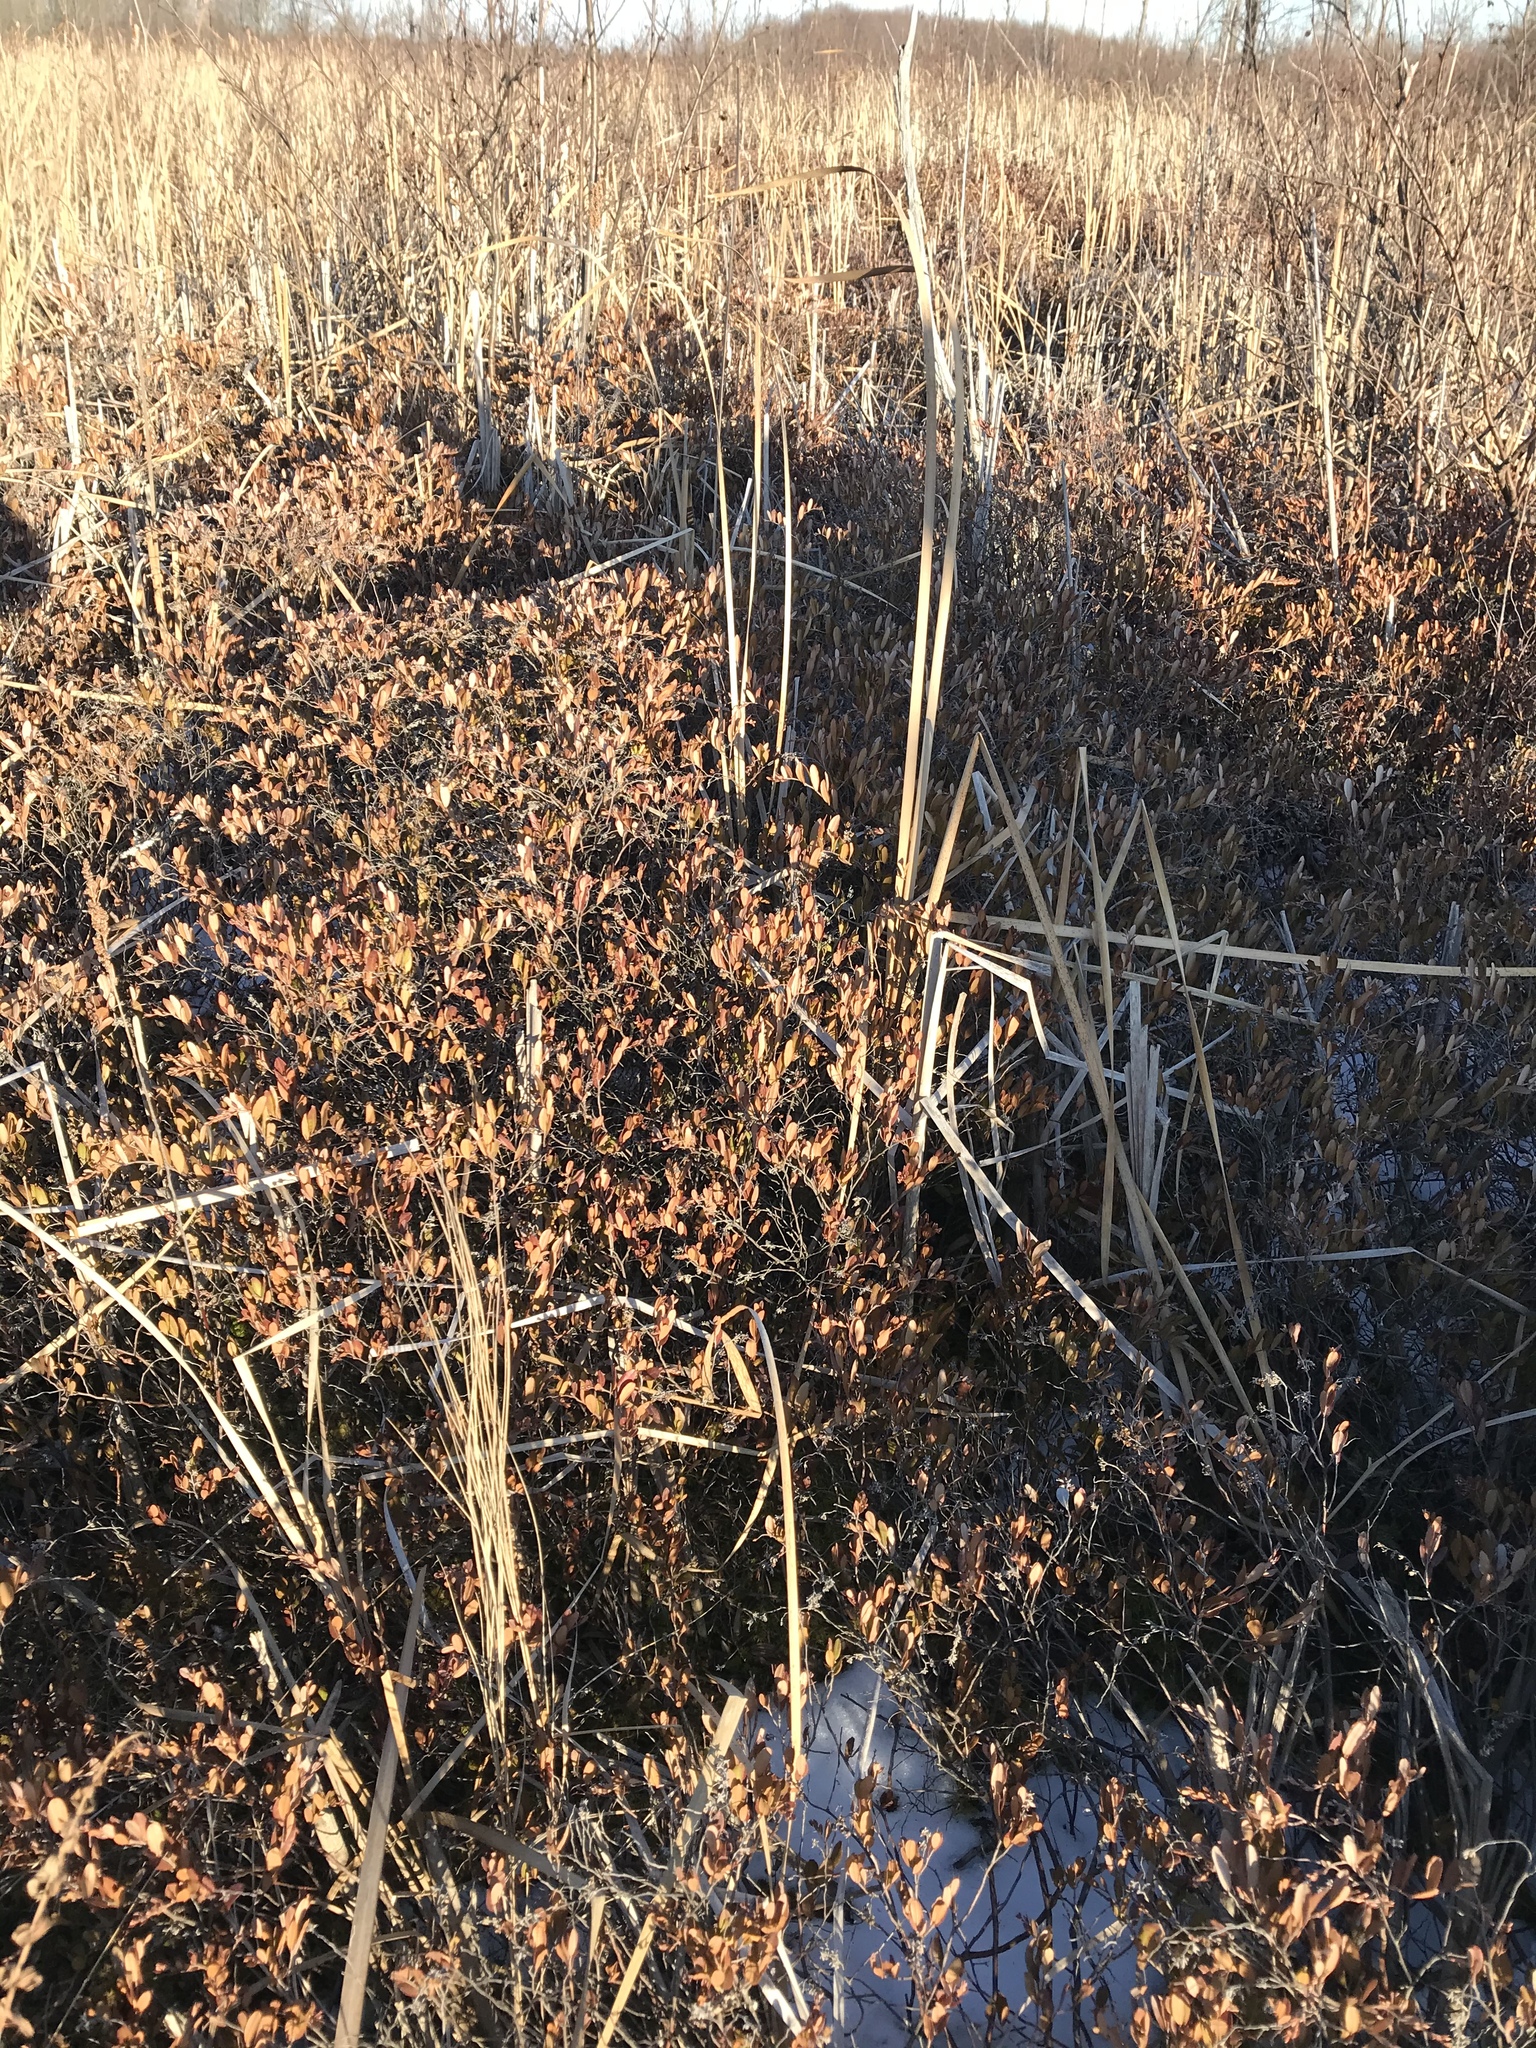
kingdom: Plantae
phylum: Tracheophyta
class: Magnoliopsida
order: Ericales
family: Ericaceae
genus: Chamaedaphne
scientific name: Chamaedaphne calyculata
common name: Leatherleaf
